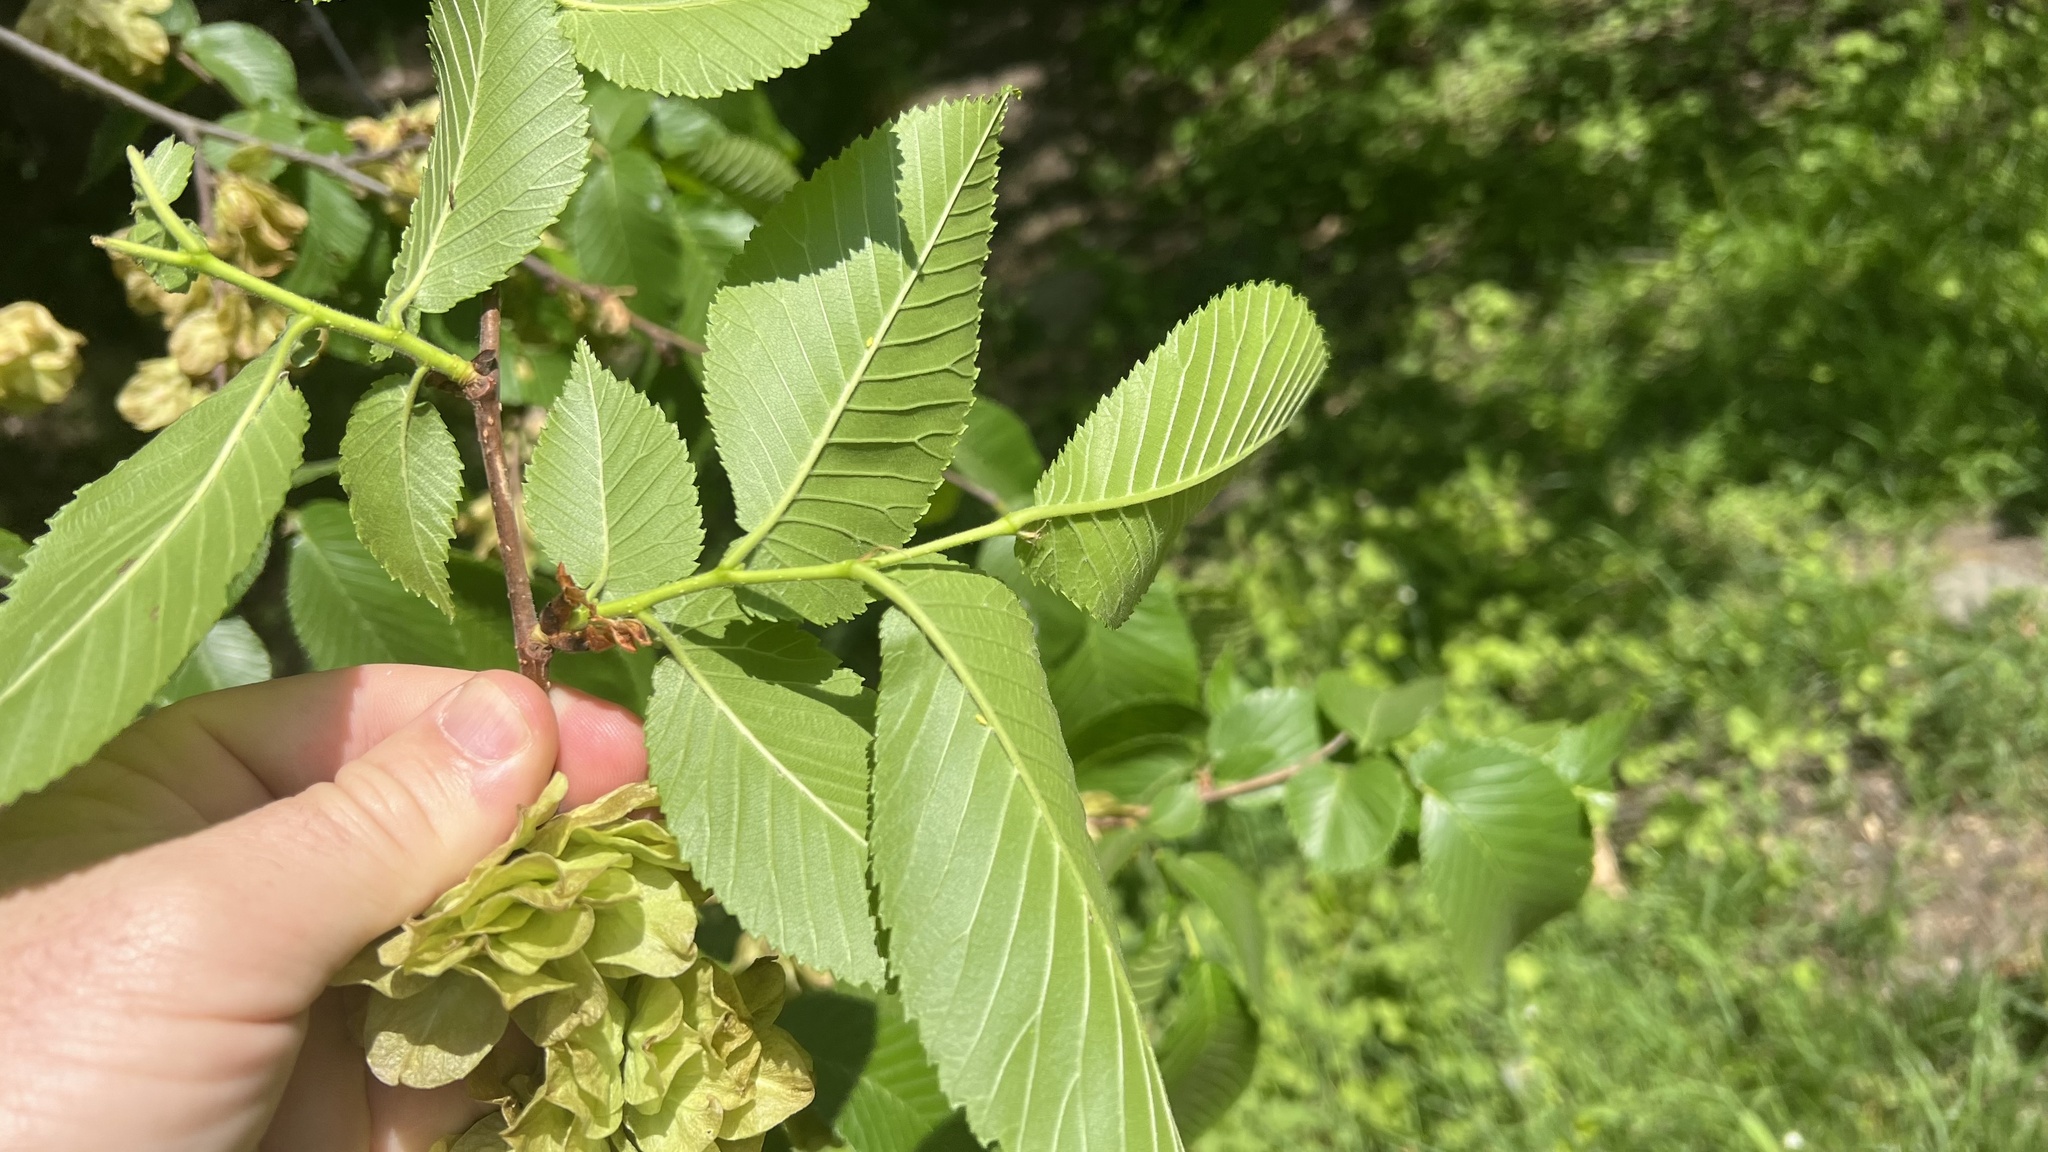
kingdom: Plantae
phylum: Tracheophyta
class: Magnoliopsida
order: Rosales
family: Ulmaceae
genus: Ulmus
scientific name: Ulmus glabra
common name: Wych elm
